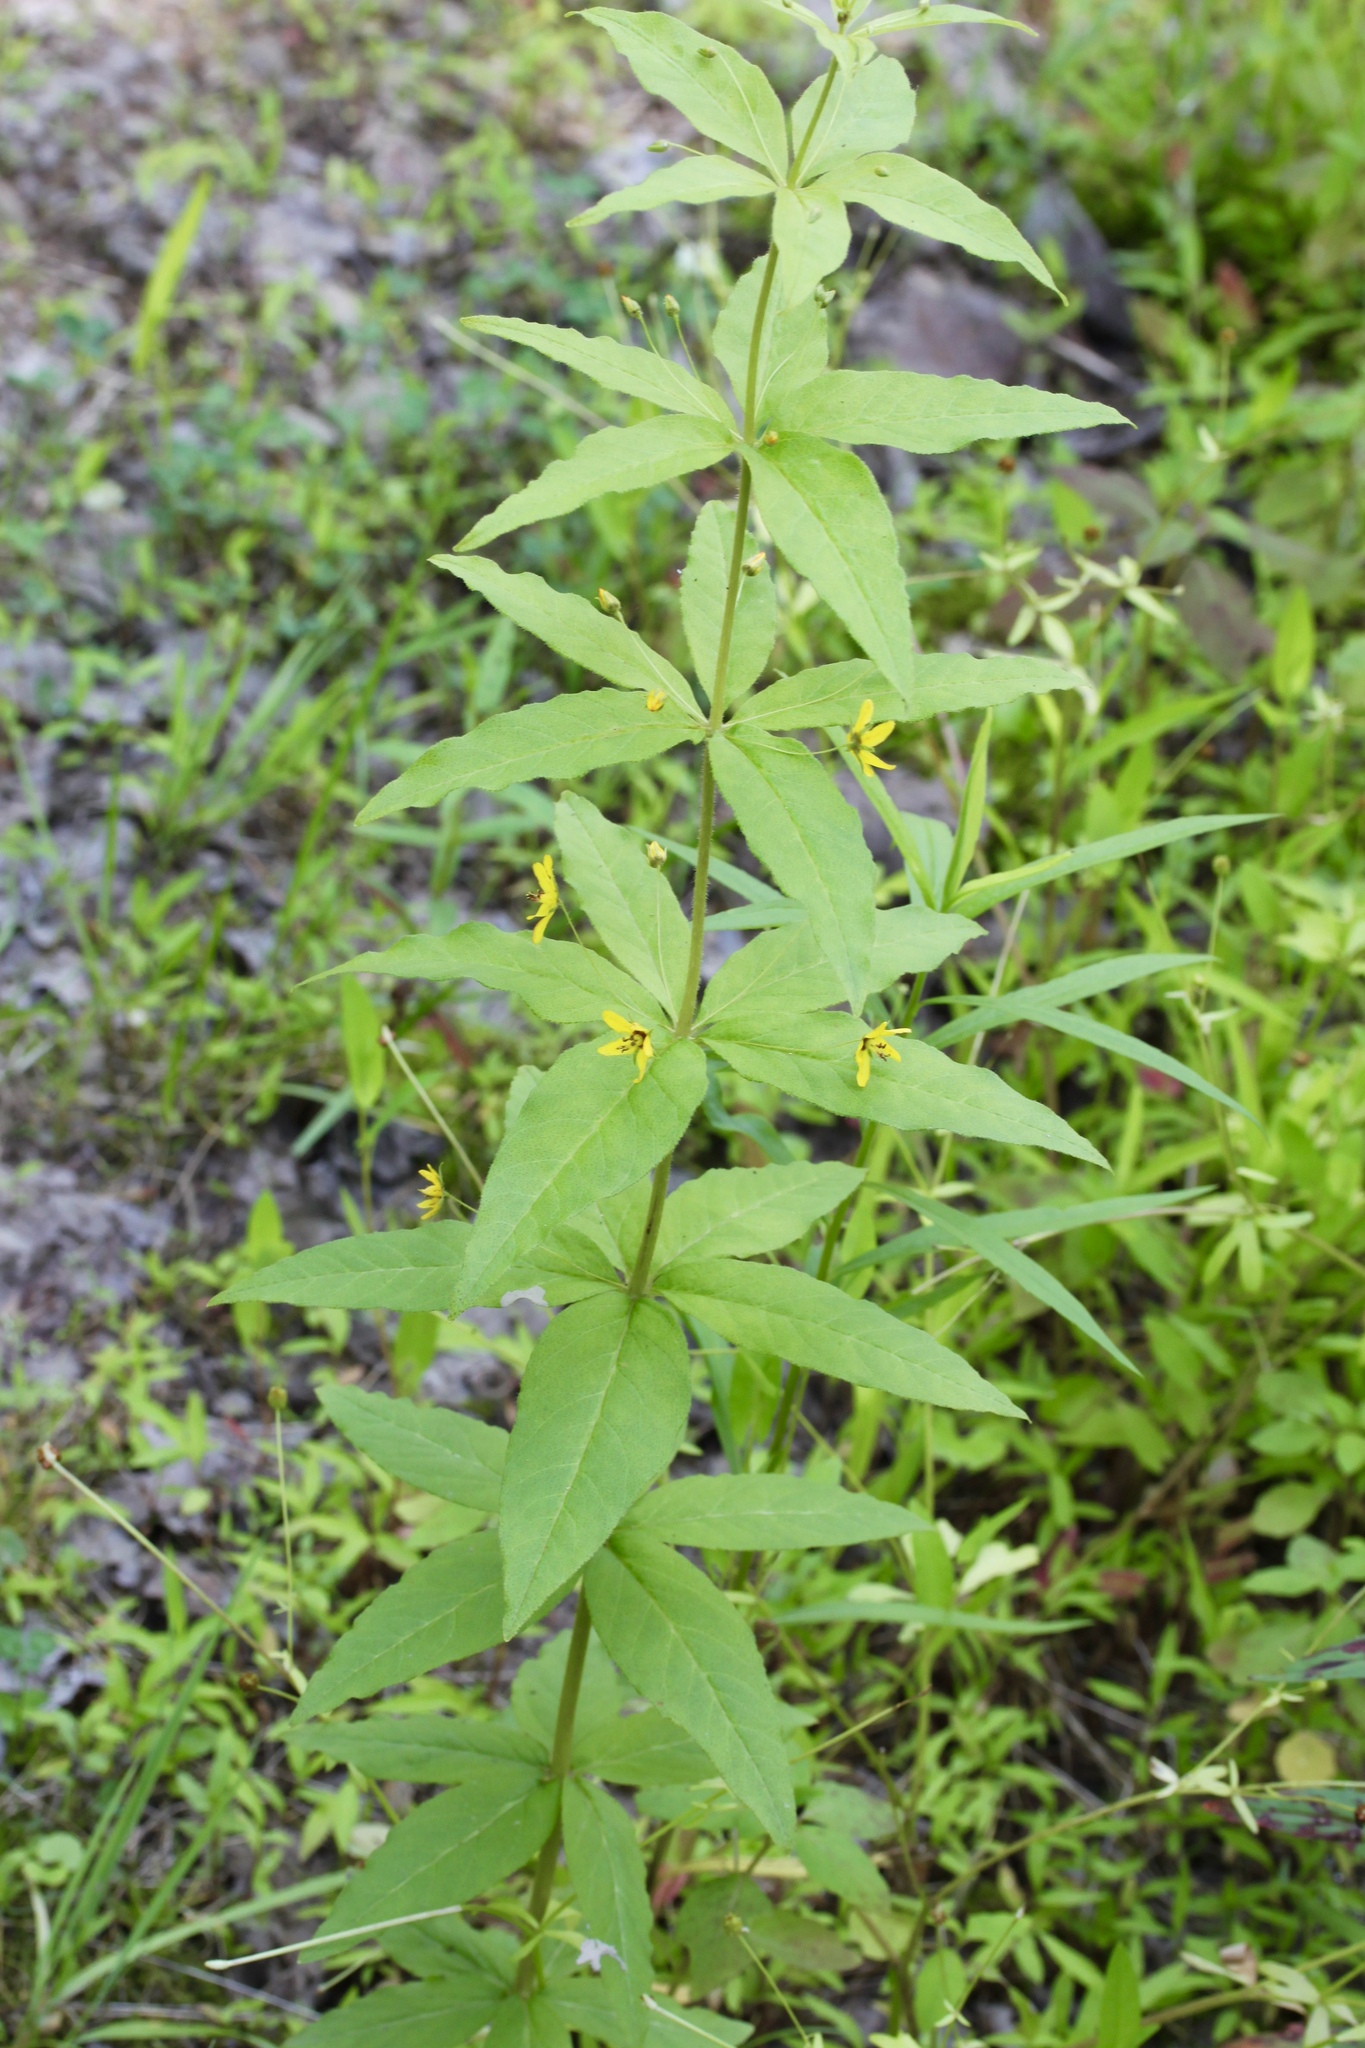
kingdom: Plantae
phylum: Tracheophyta
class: Magnoliopsida
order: Ericales
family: Primulaceae
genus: Lysimachia
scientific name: Lysimachia quadrifolia
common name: Whorled loosestrife
